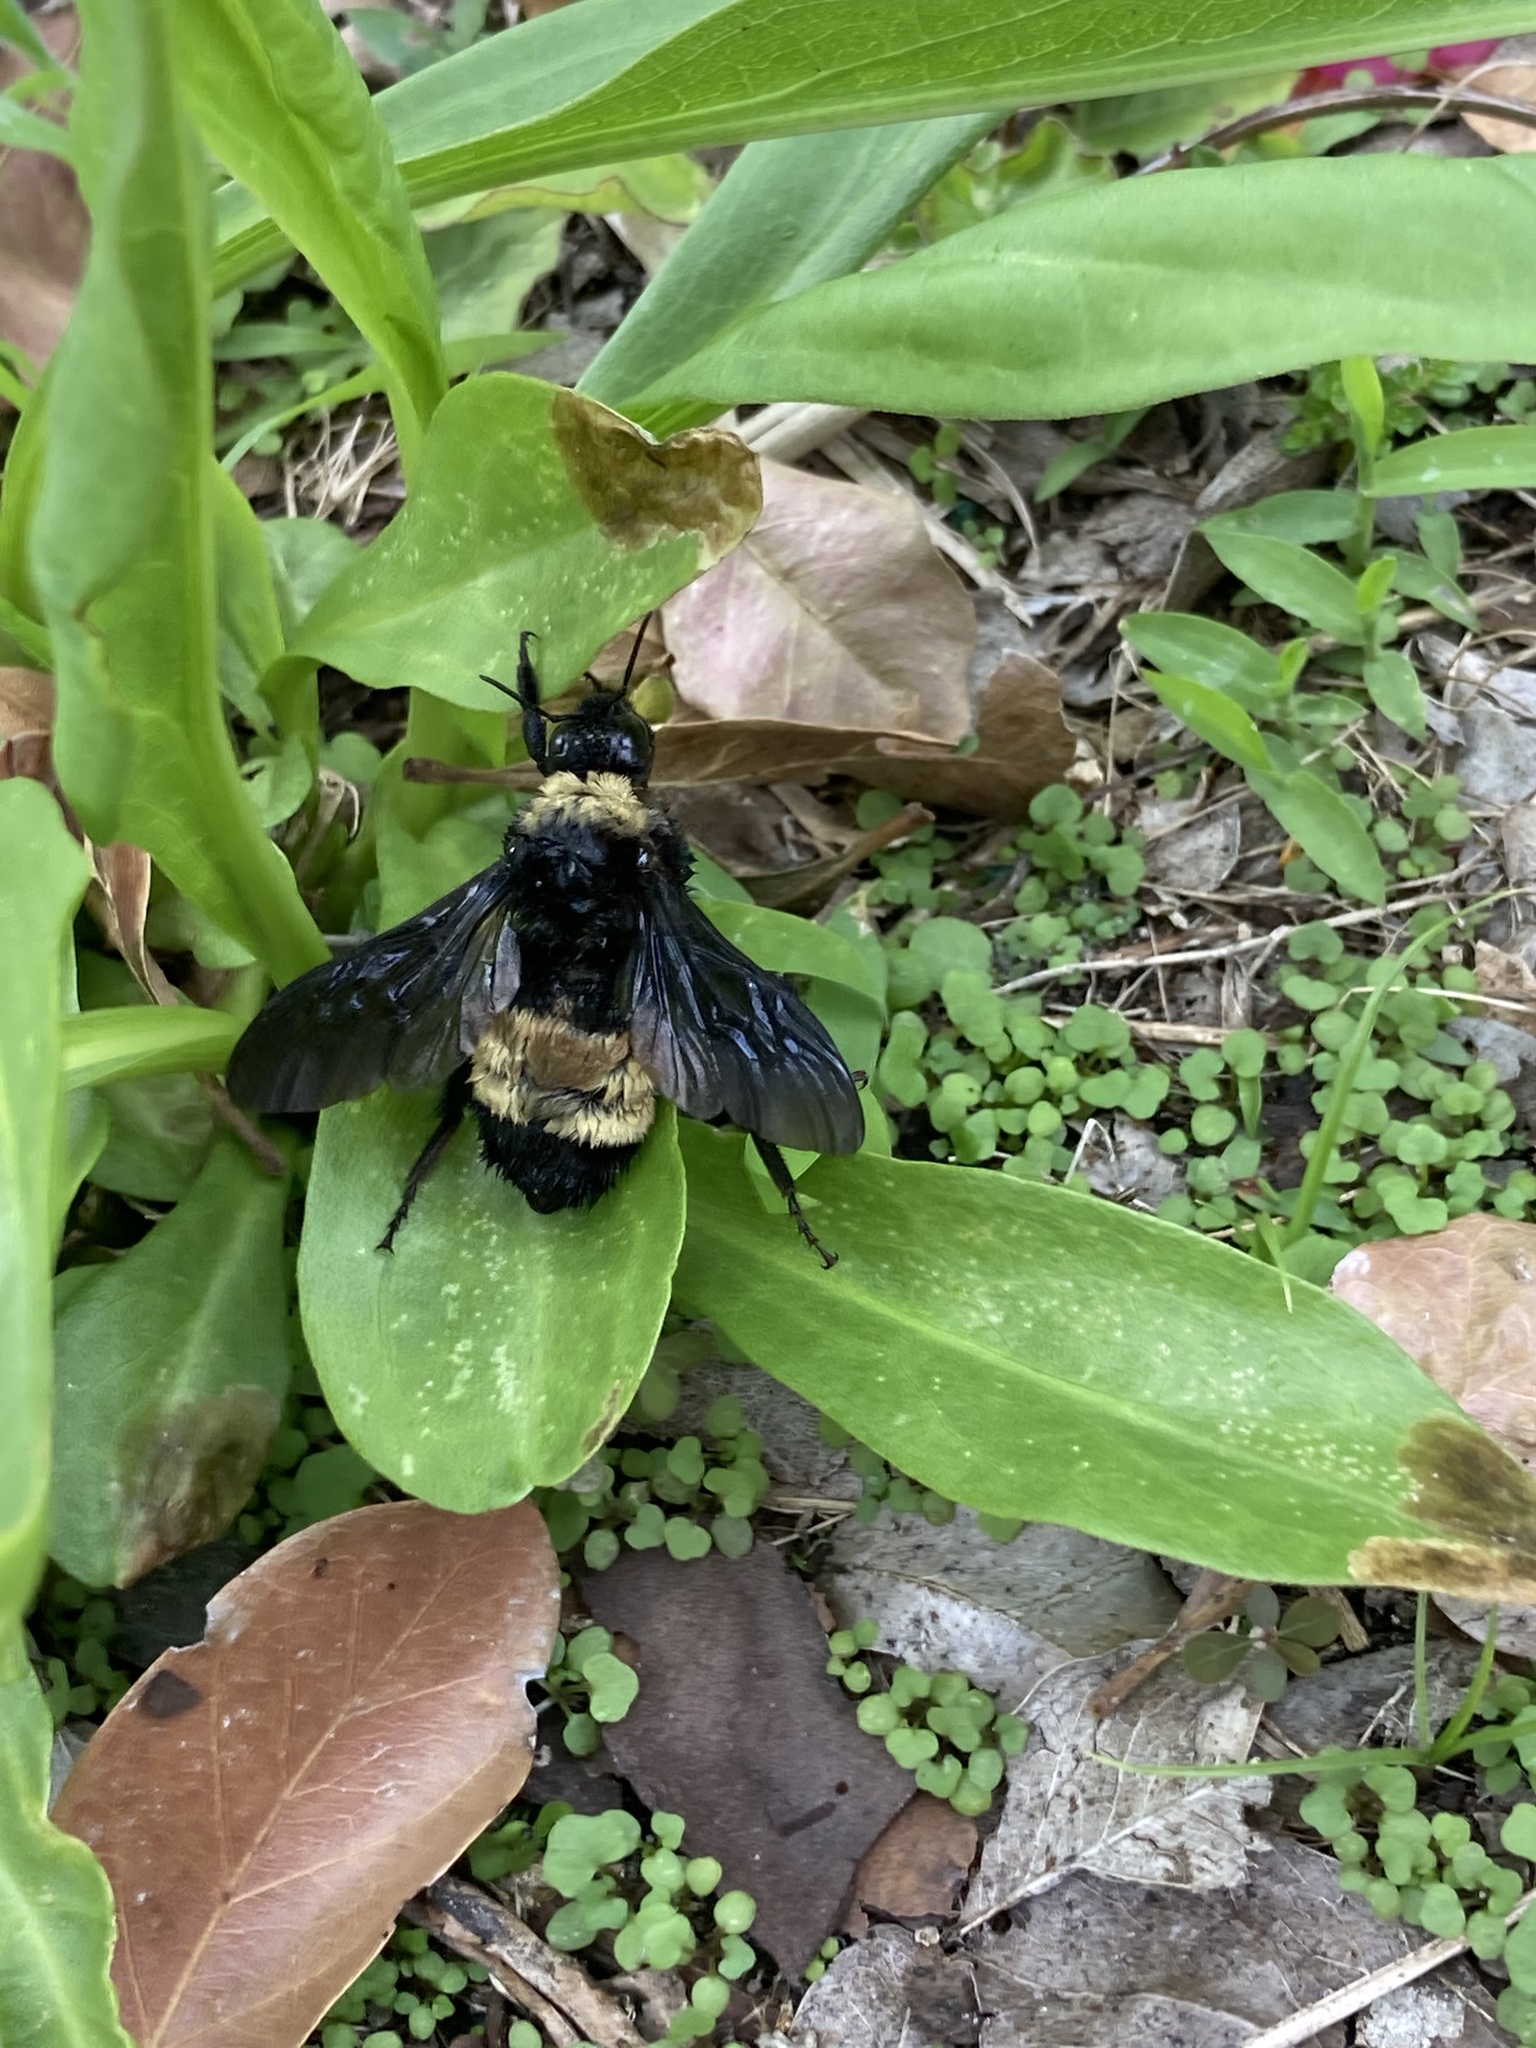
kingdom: Animalia
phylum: Arthropoda
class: Insecta
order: Hymenoptera
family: Apidae
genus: Bombus
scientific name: Bombus pensylvanicus
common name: Bumble bee
